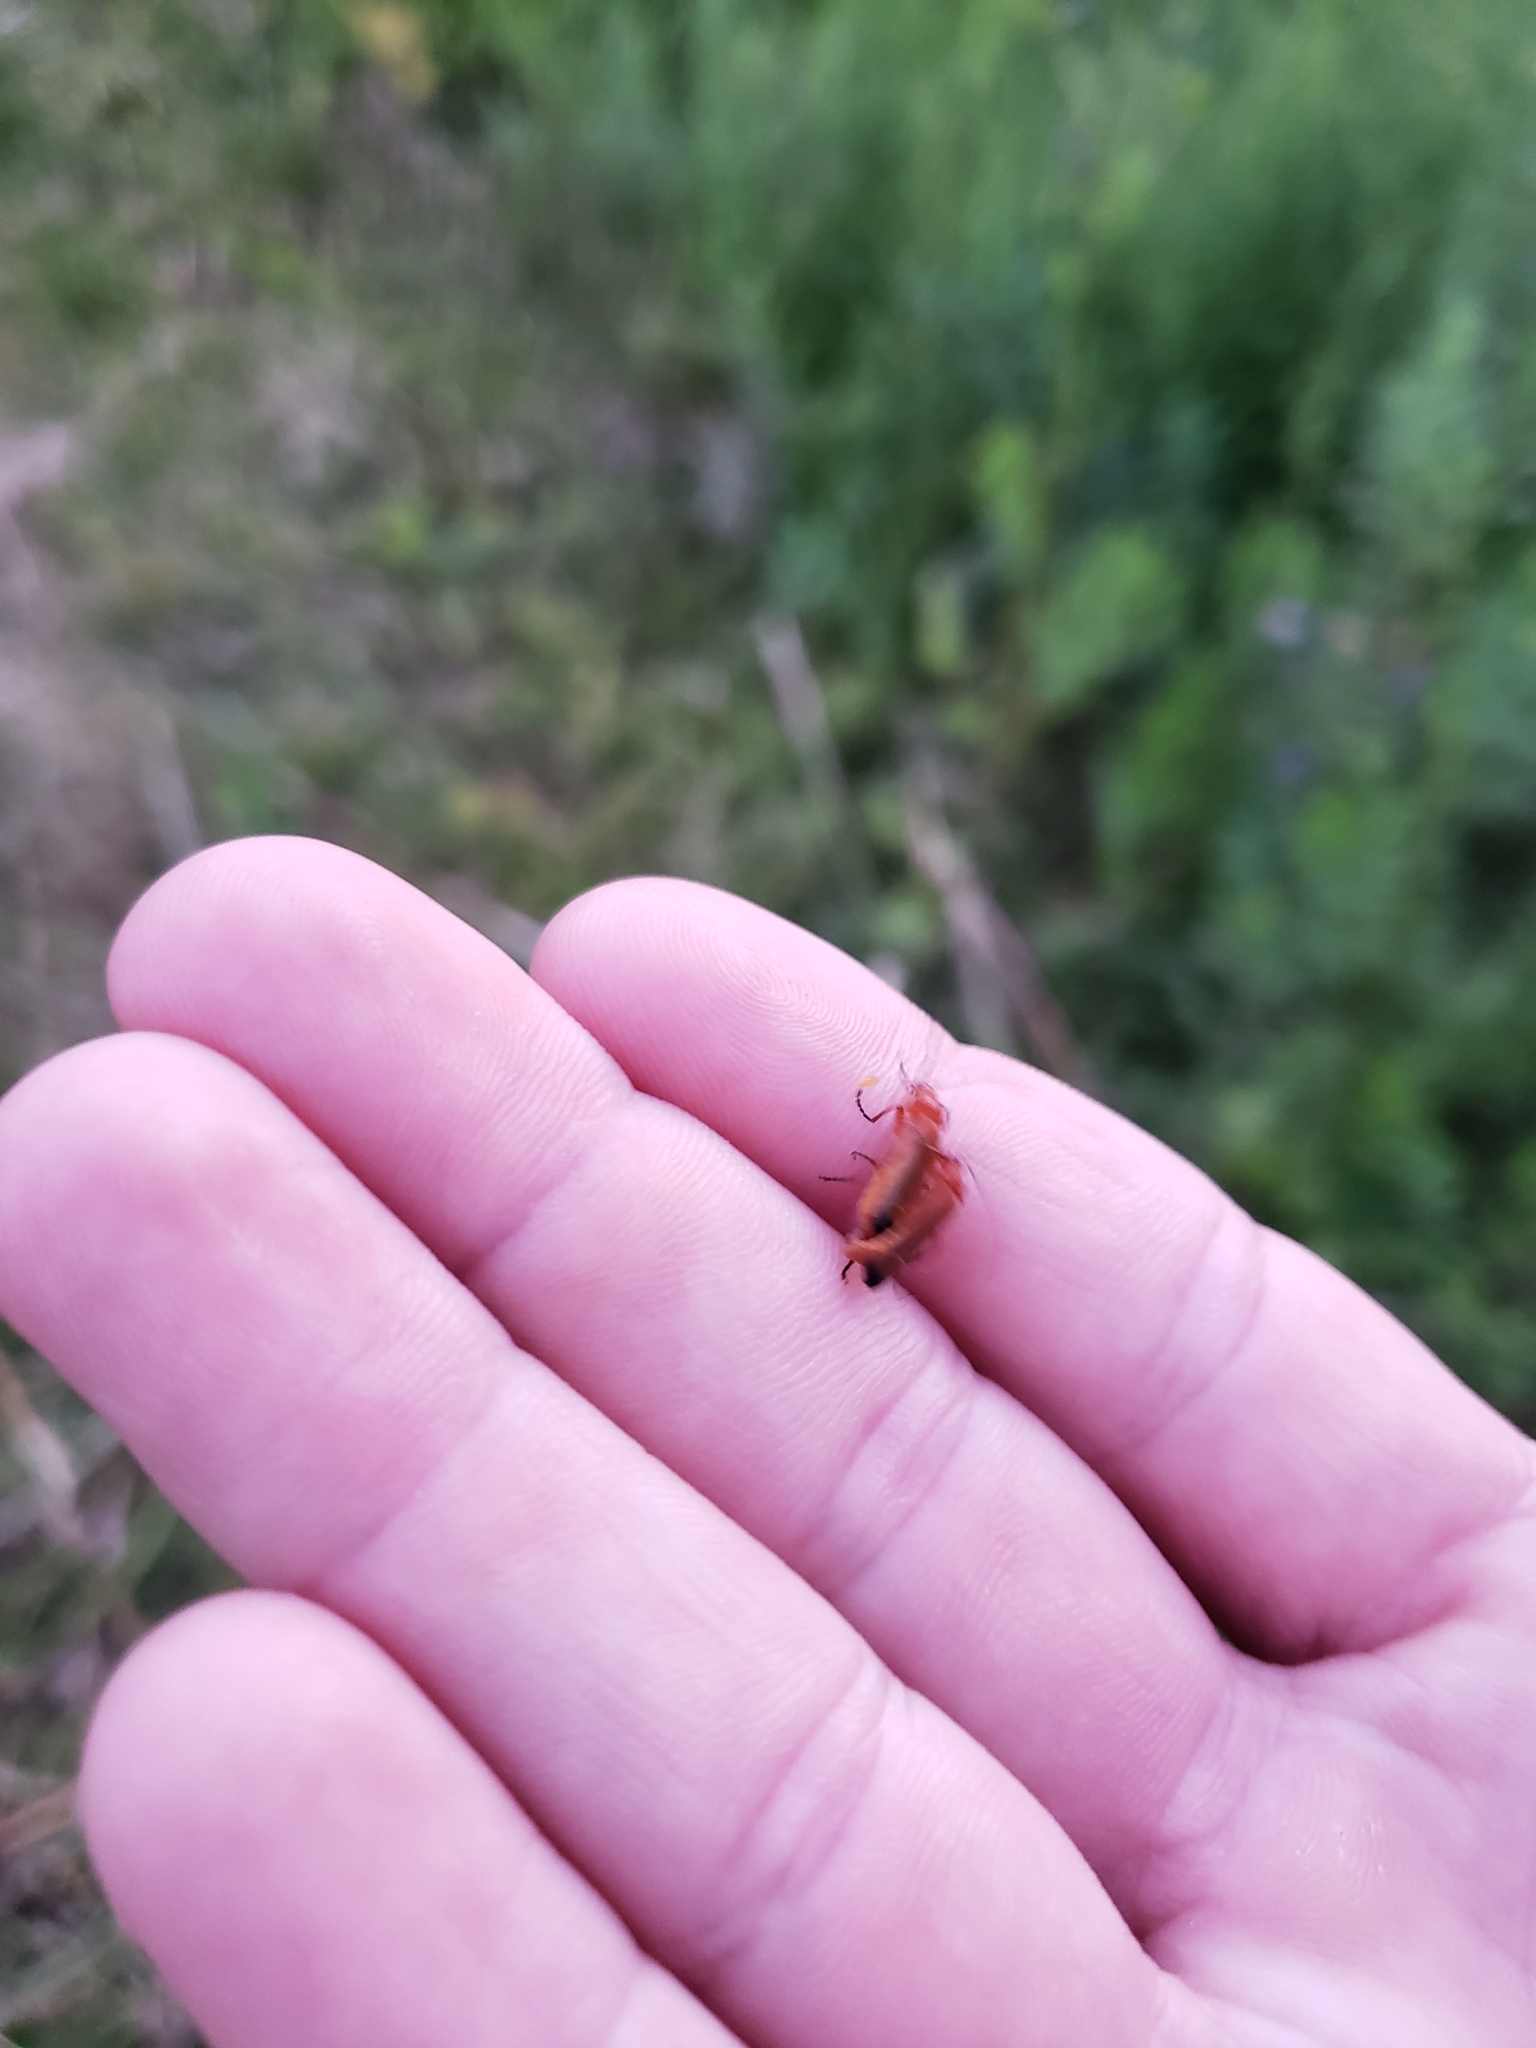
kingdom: Animalia
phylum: Arthropoda
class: Insecta
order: Coleoptera
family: Cantharidae
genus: Rhagonycha
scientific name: Rhagonycha fulva
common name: Common red soldier beetle
